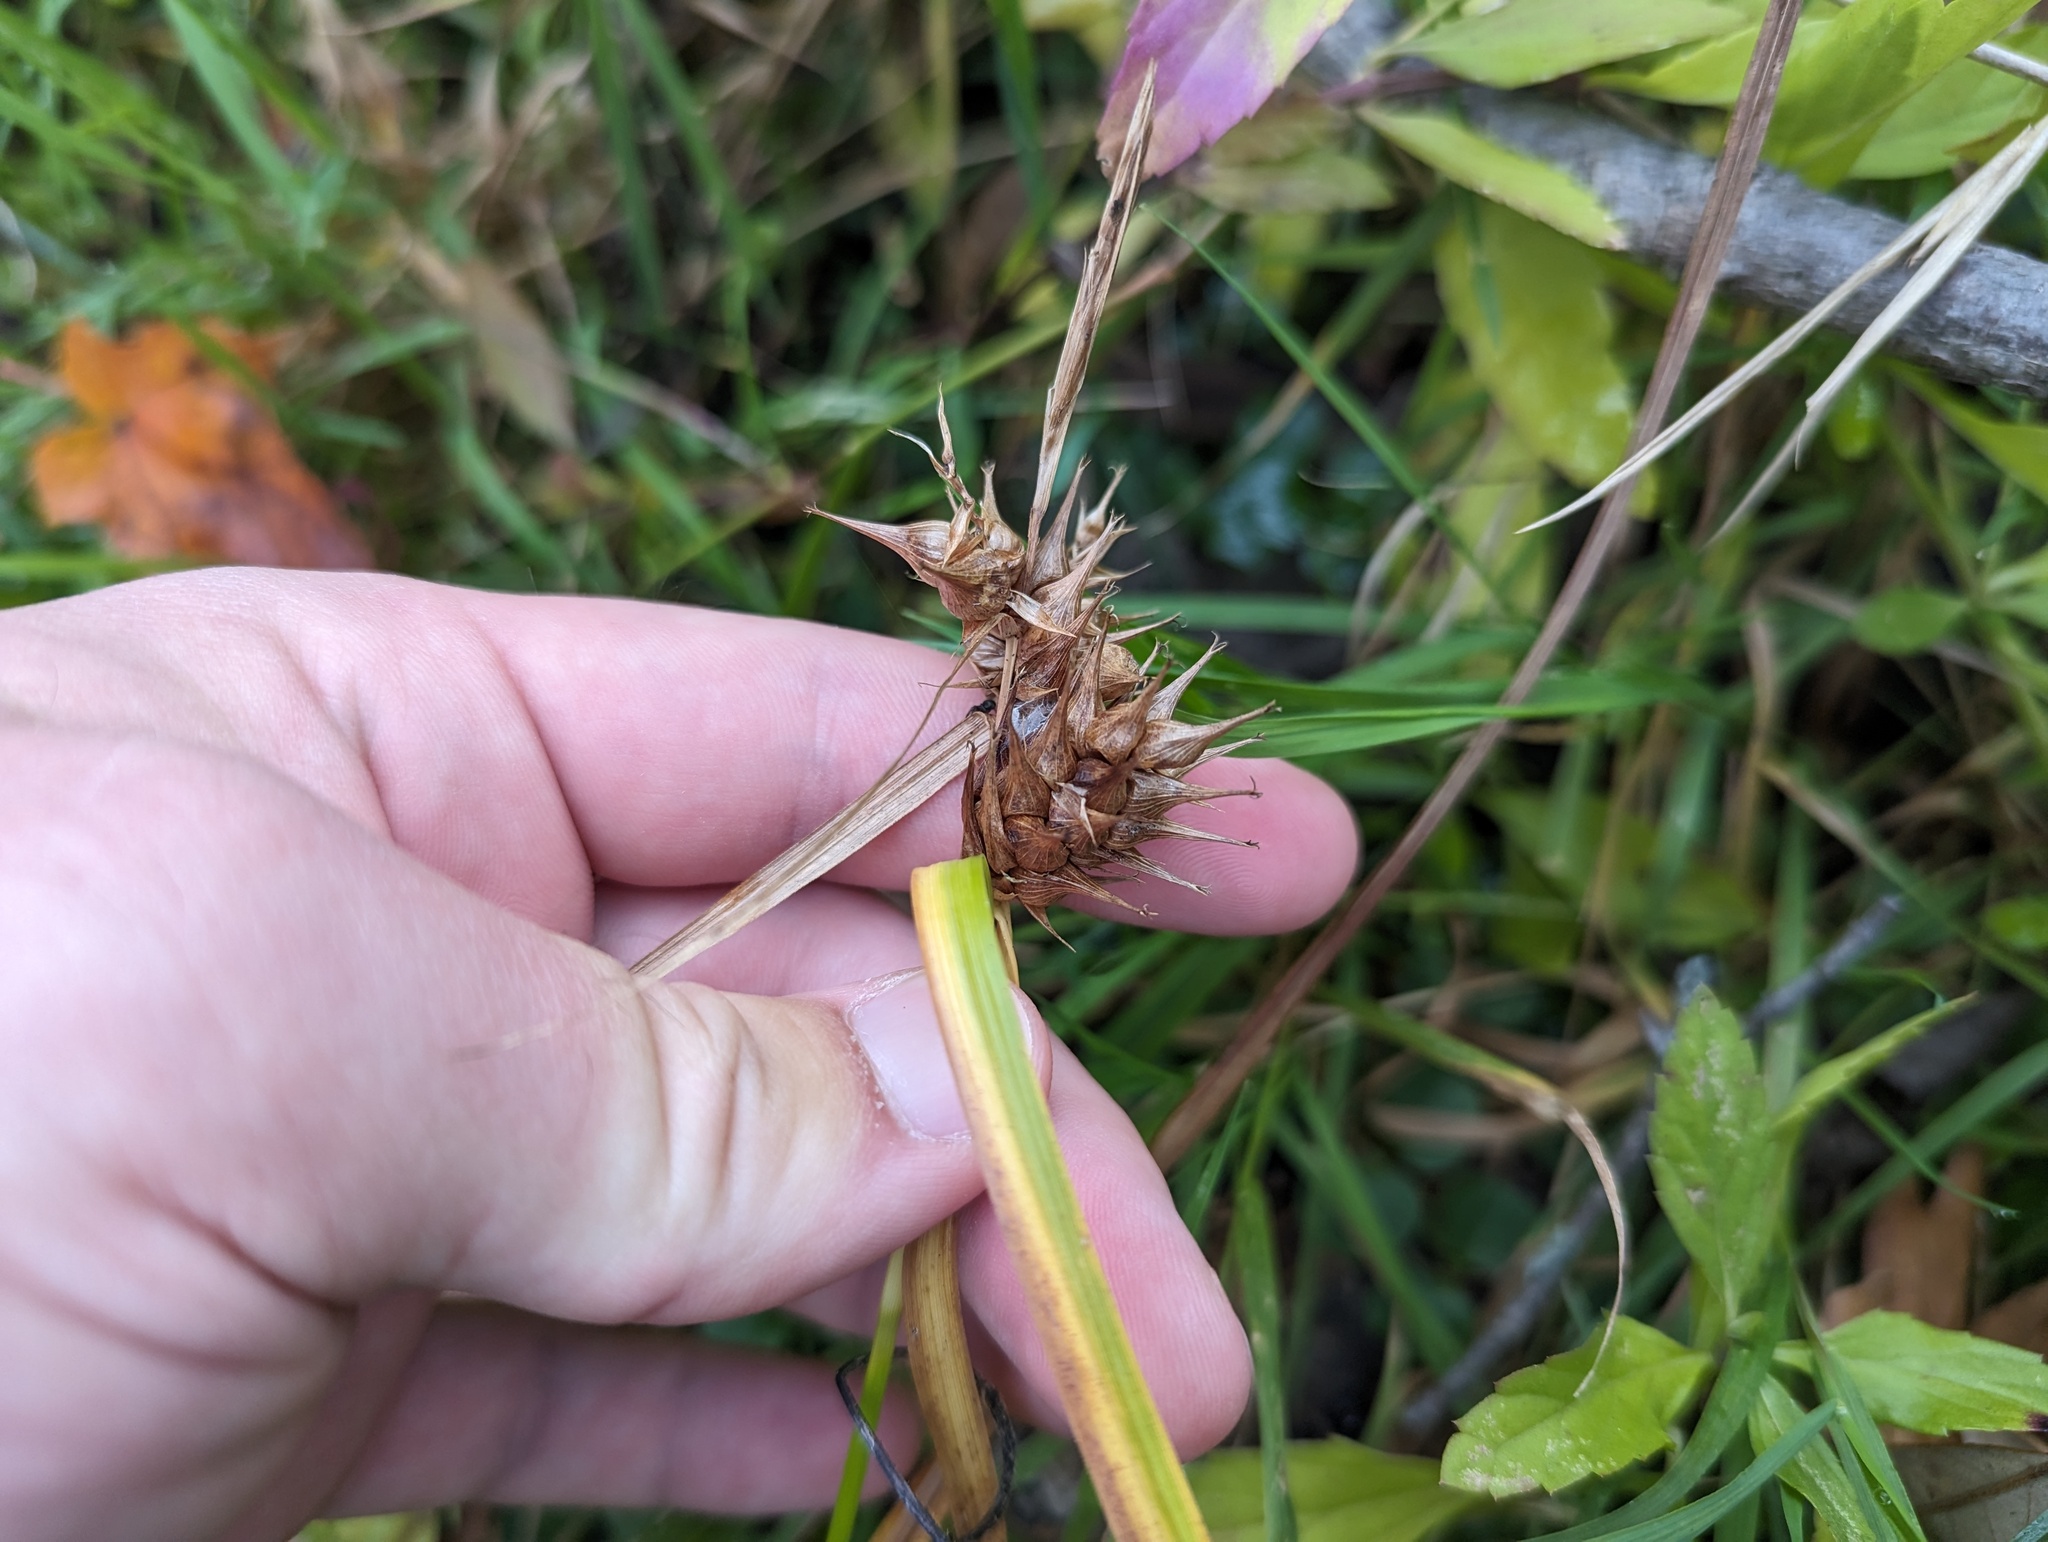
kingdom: Plantae
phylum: Tracheophyta
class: Liliopsida
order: Poales
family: Cyperaceae
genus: Carex
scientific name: Carex lupulina
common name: Hop sedge
